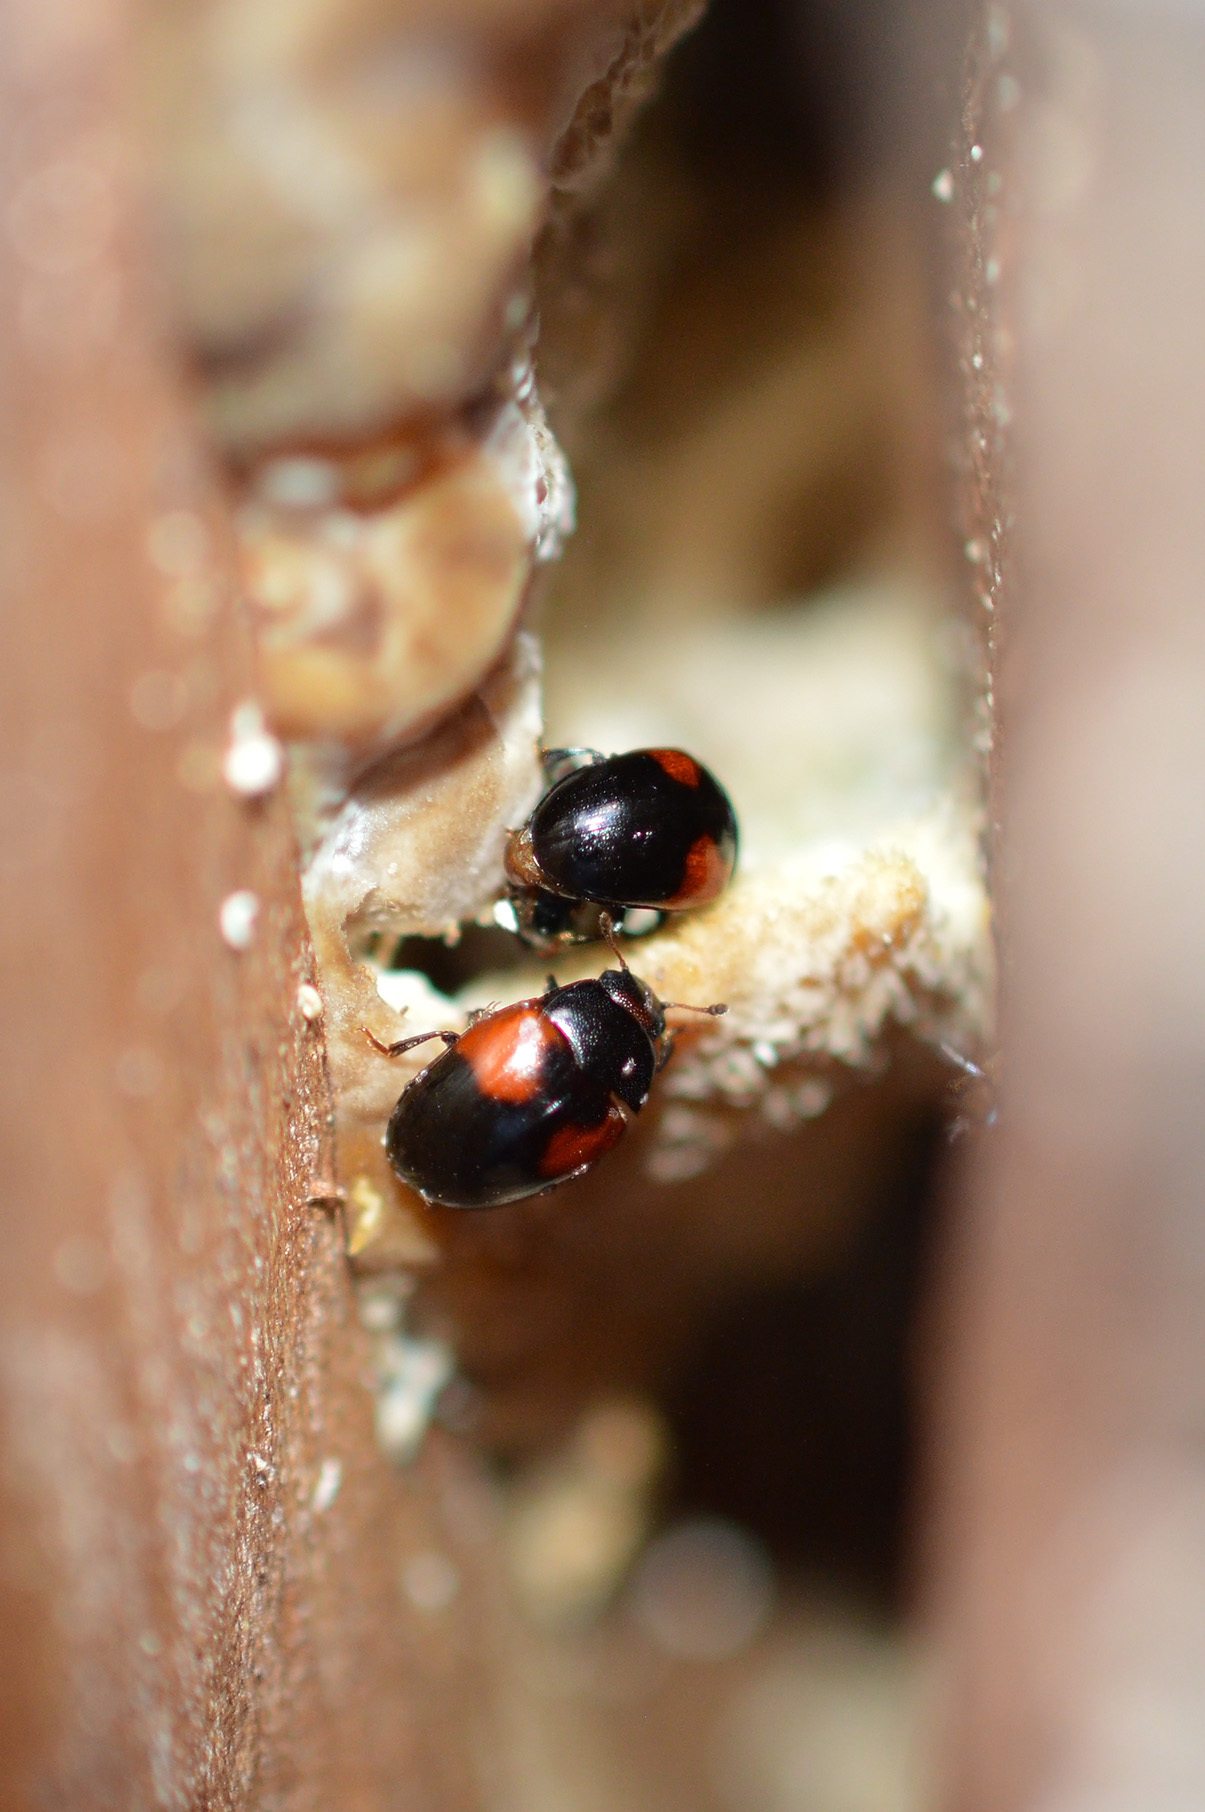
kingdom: Animalia
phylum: Arthropoda
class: Insecta
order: Coleoptera
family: Erotylidae
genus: Tritoma
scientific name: Tritoma bipustulata
